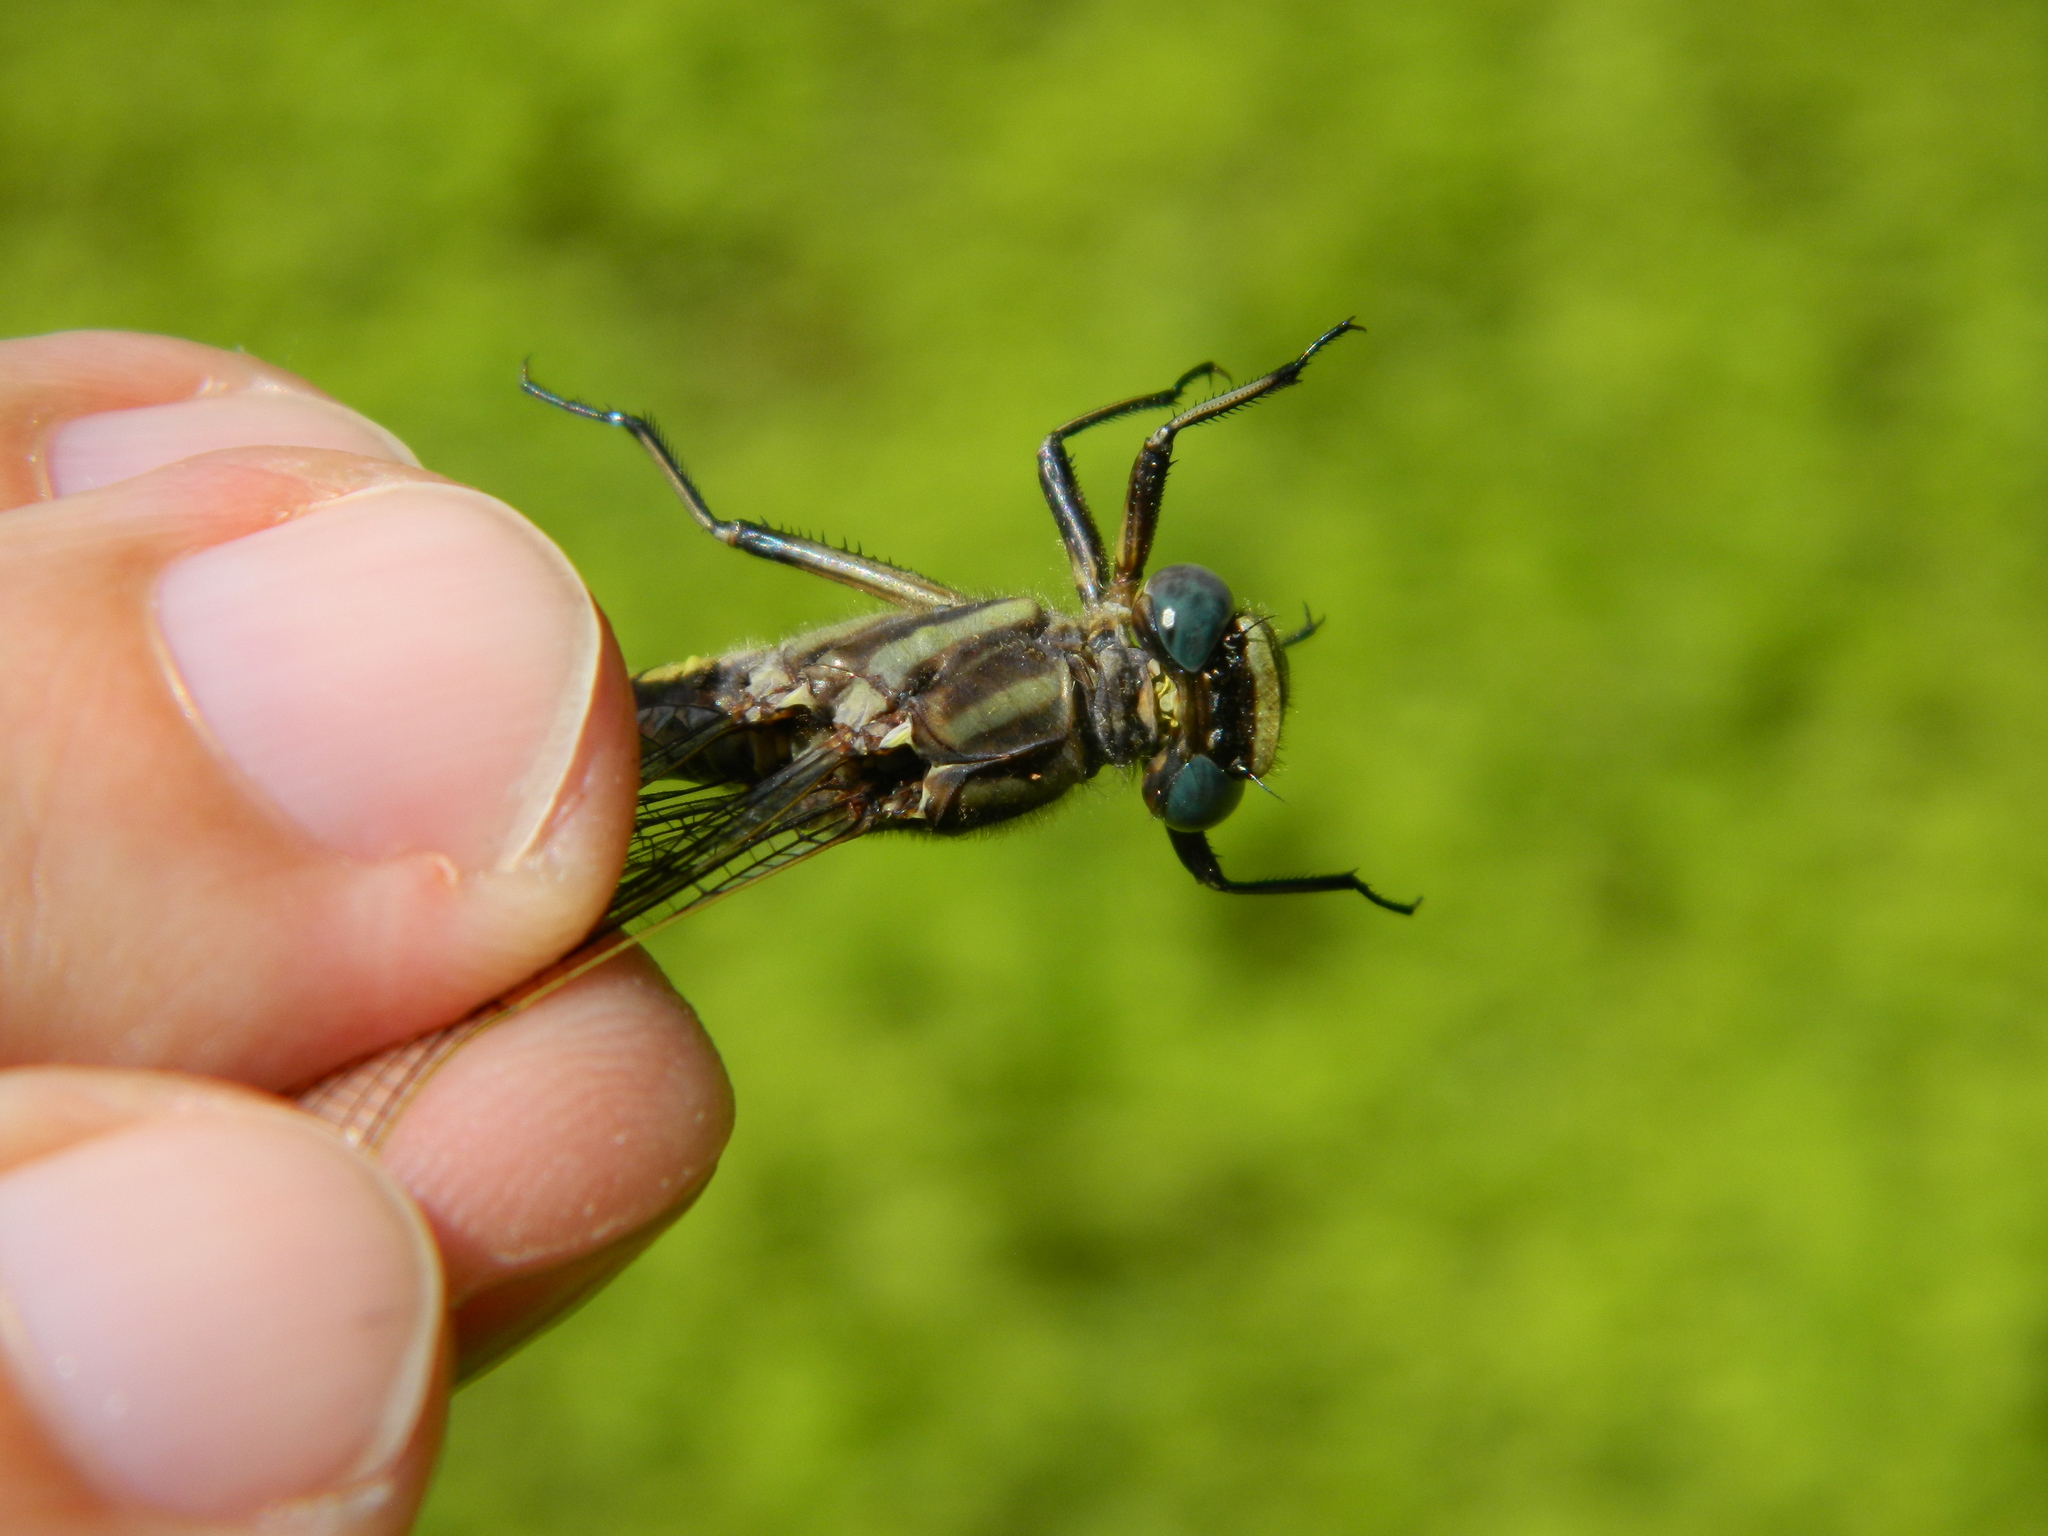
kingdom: Animalia
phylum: Arthropoda
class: Insecta
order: Odonata
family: Gomphidae
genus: Phanogomphus
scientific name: Phanogomphus spicatus
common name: Dusky clubtail
